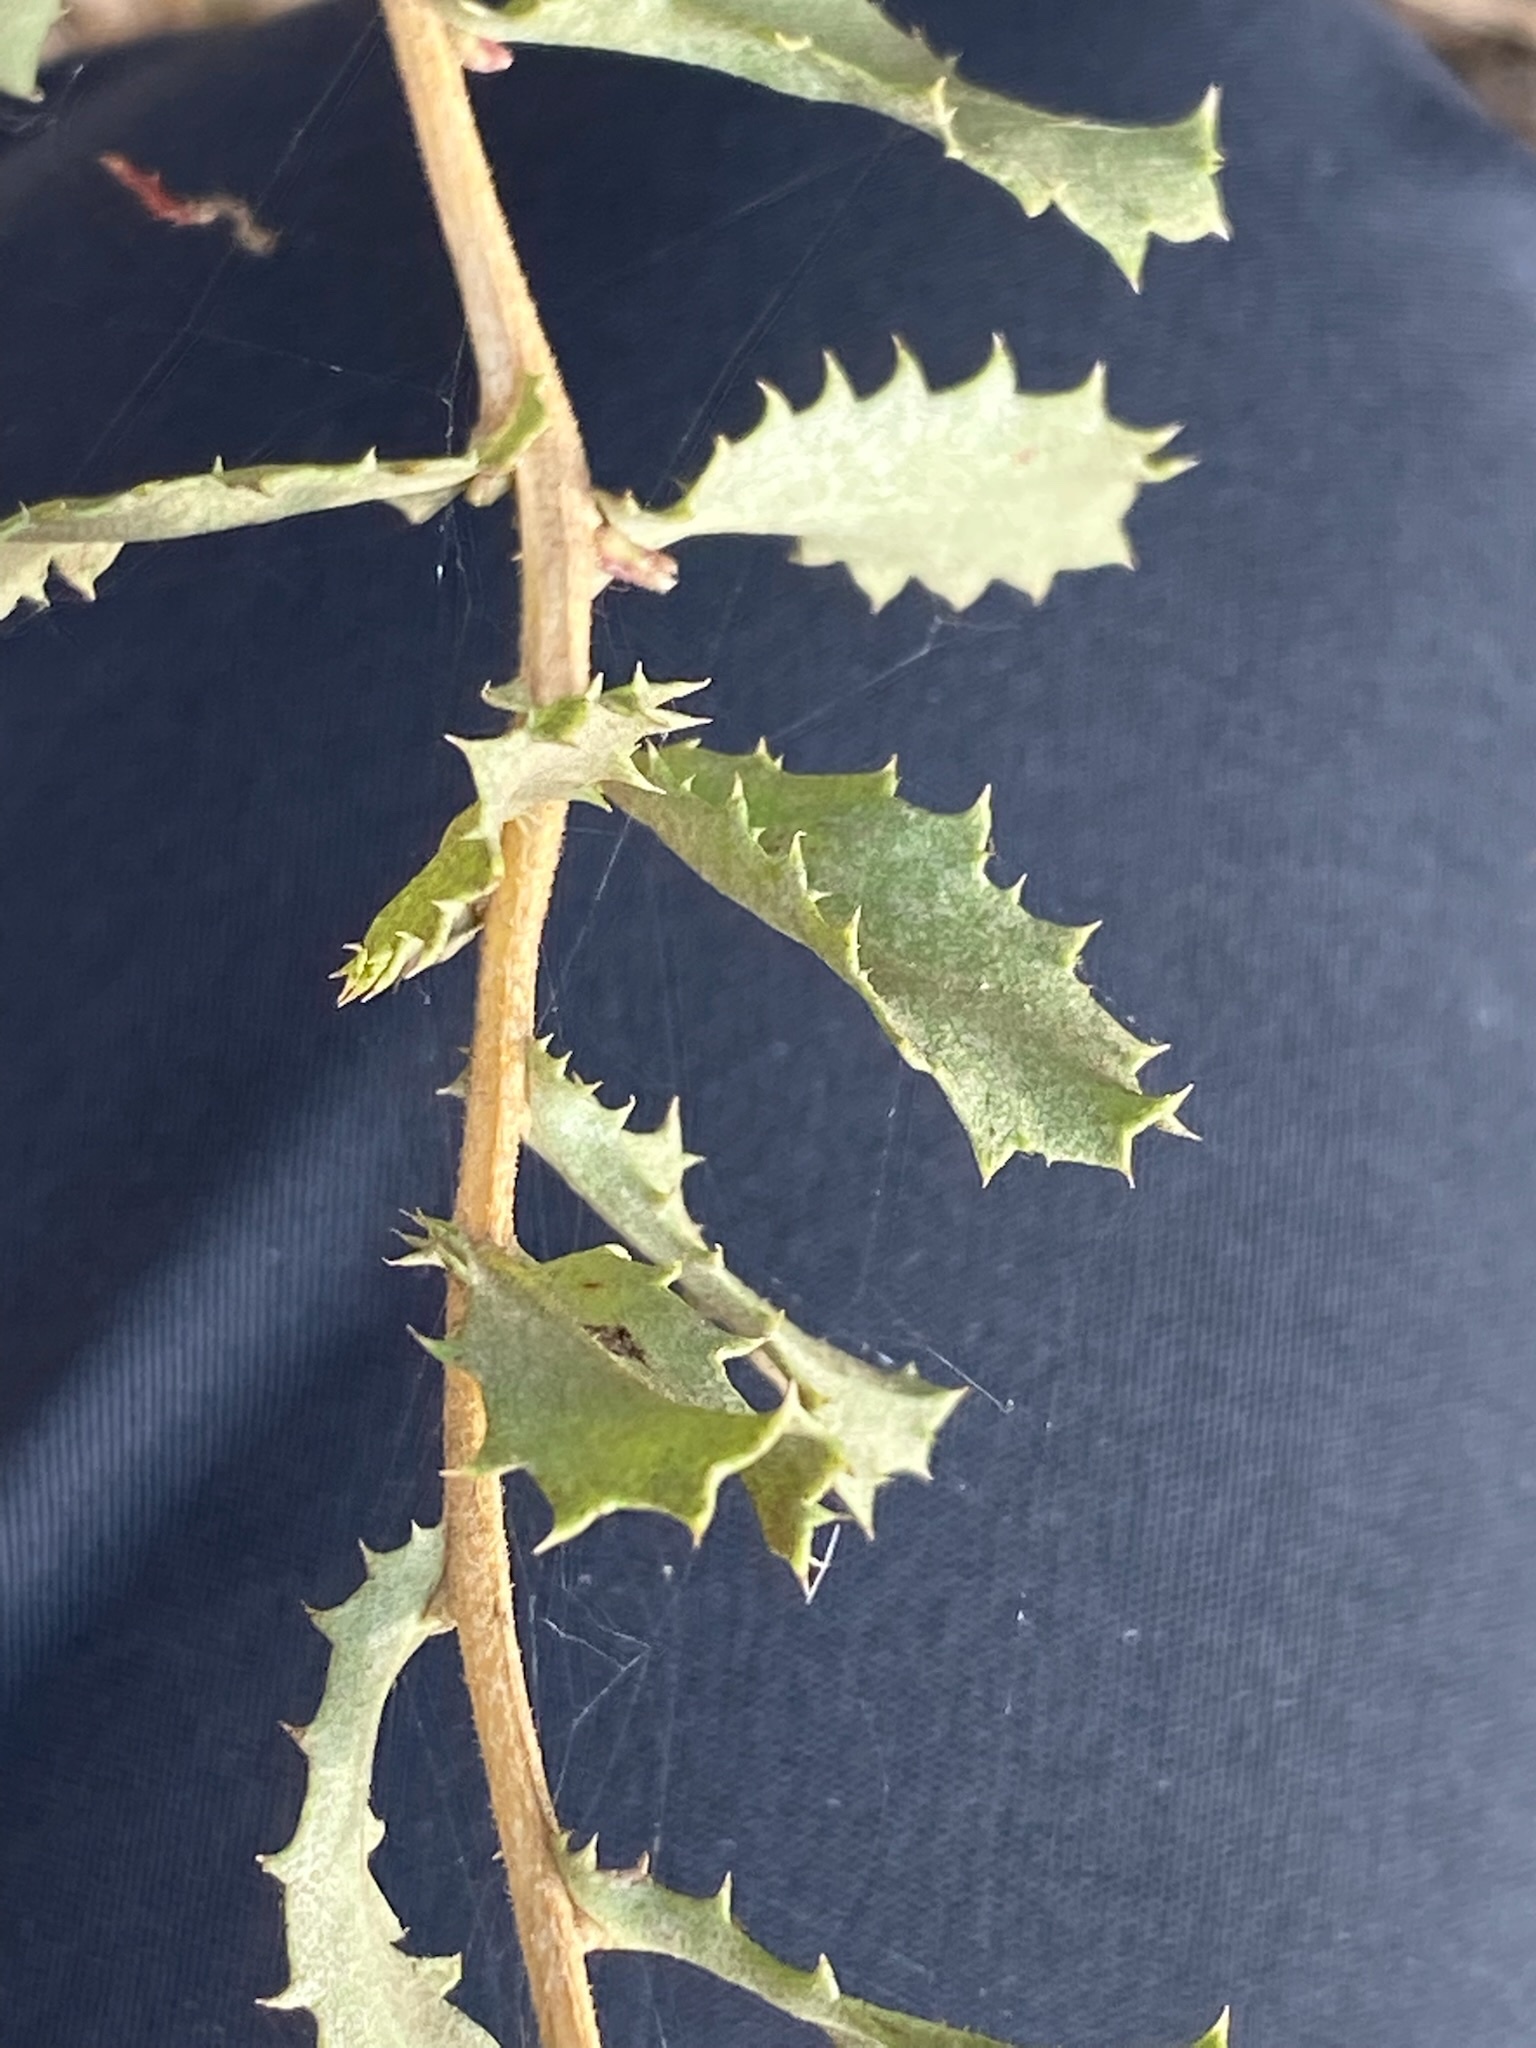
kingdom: Plantae
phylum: Tracheophyta
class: Magnoliopsida
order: Asterales
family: Asteraceae
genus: Hazardia
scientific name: Hazardia squarrosa
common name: Saw-tooth goldenbush
